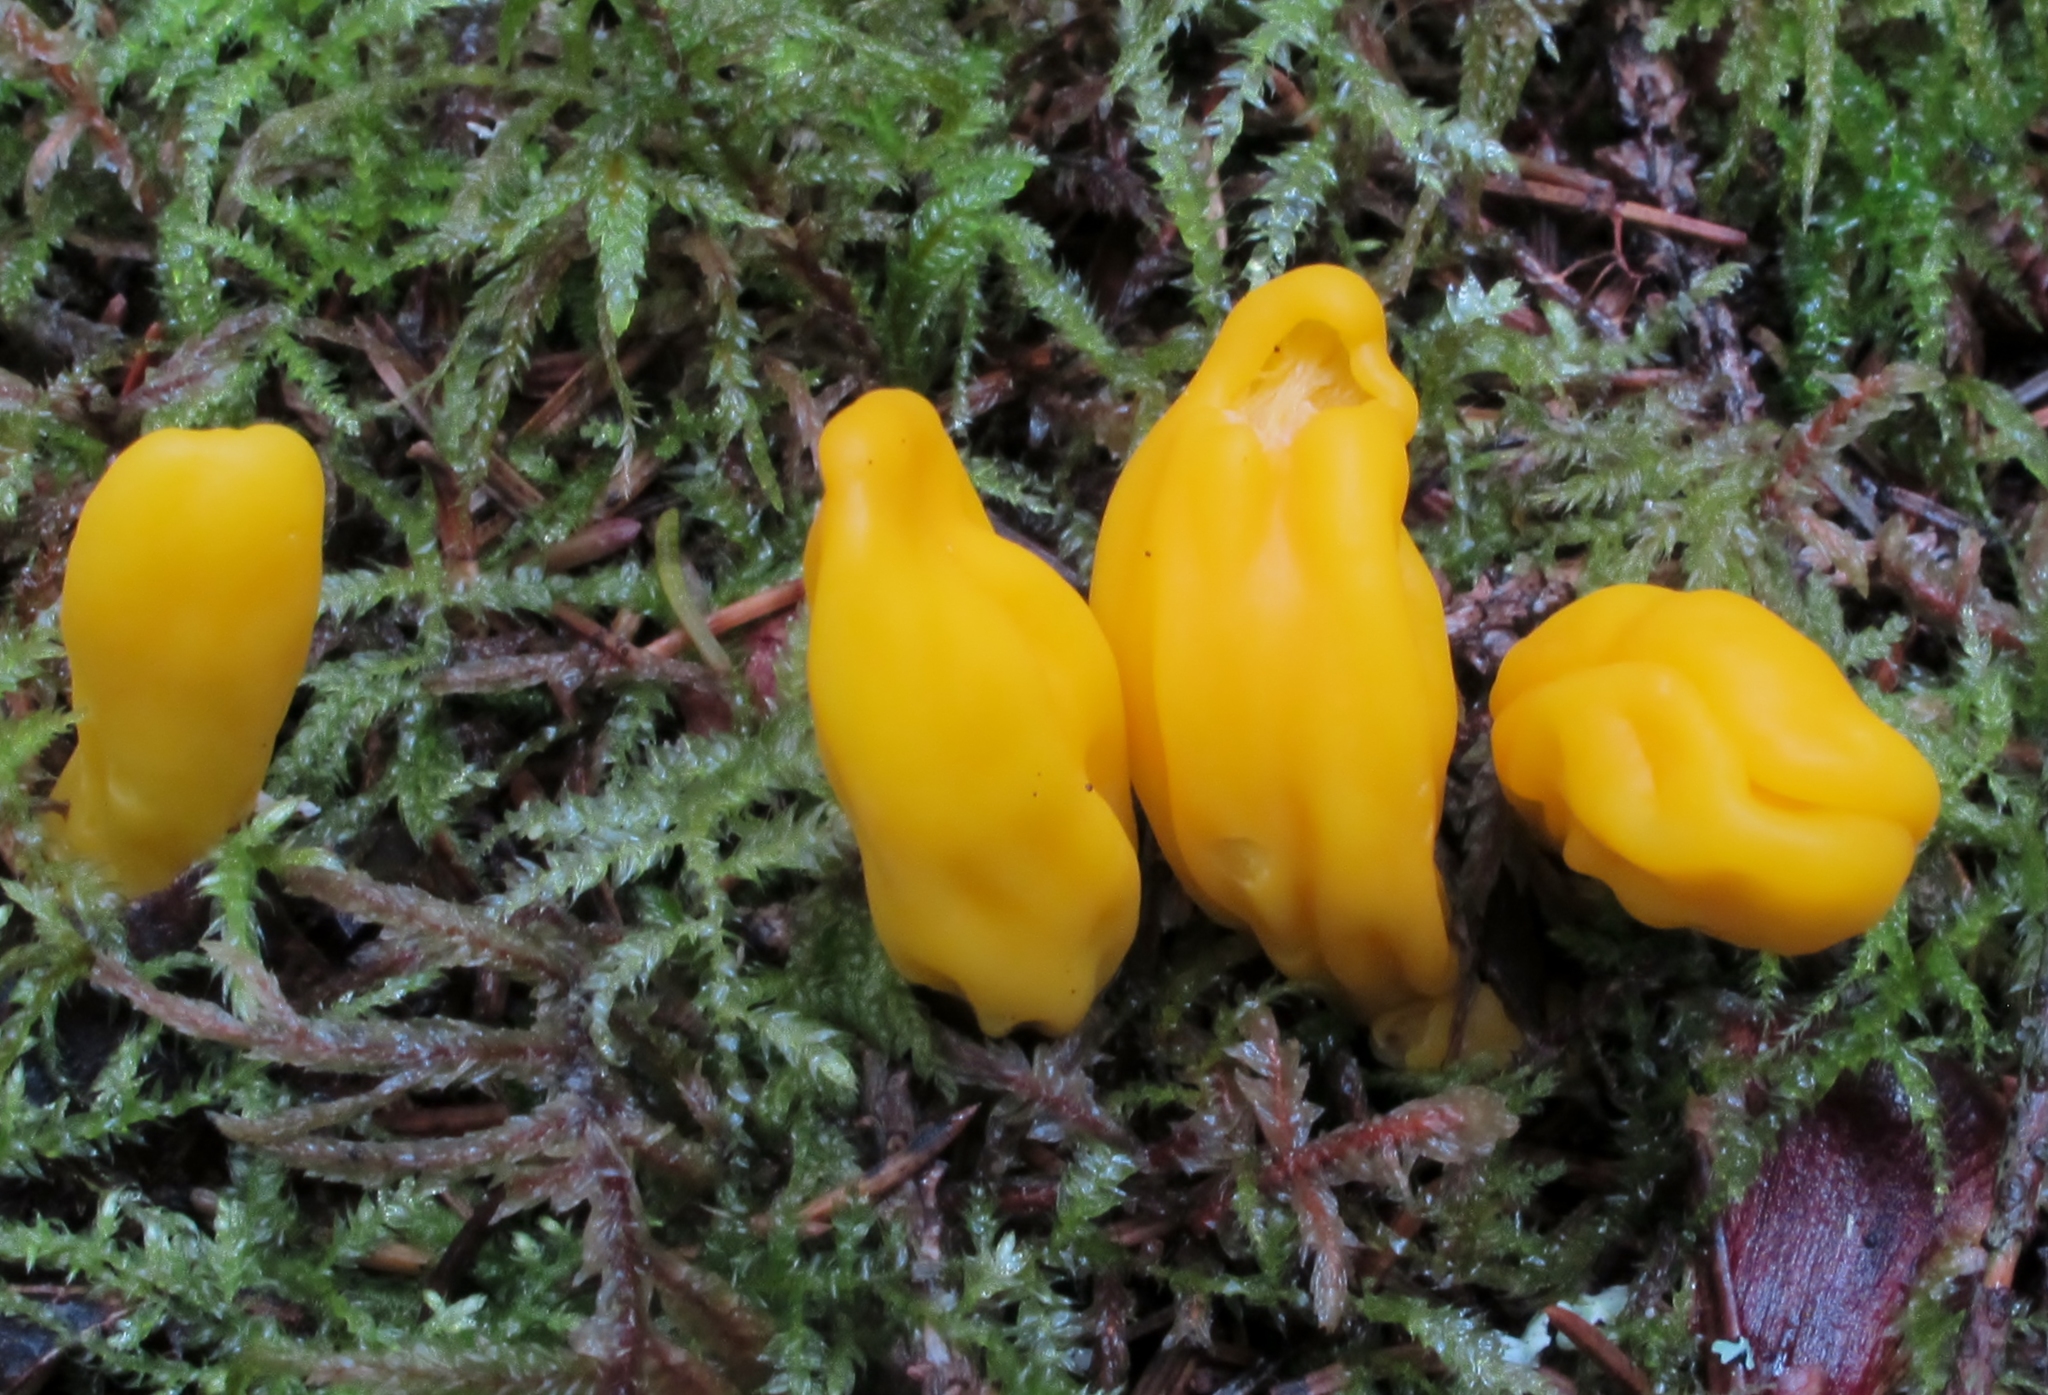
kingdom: Fungi
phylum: Ascomycota
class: Neolectomycetes
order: Neolectales
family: Neolectaceae
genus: Neolecta
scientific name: Neolecta irregularis
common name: Irregular earth tongue
